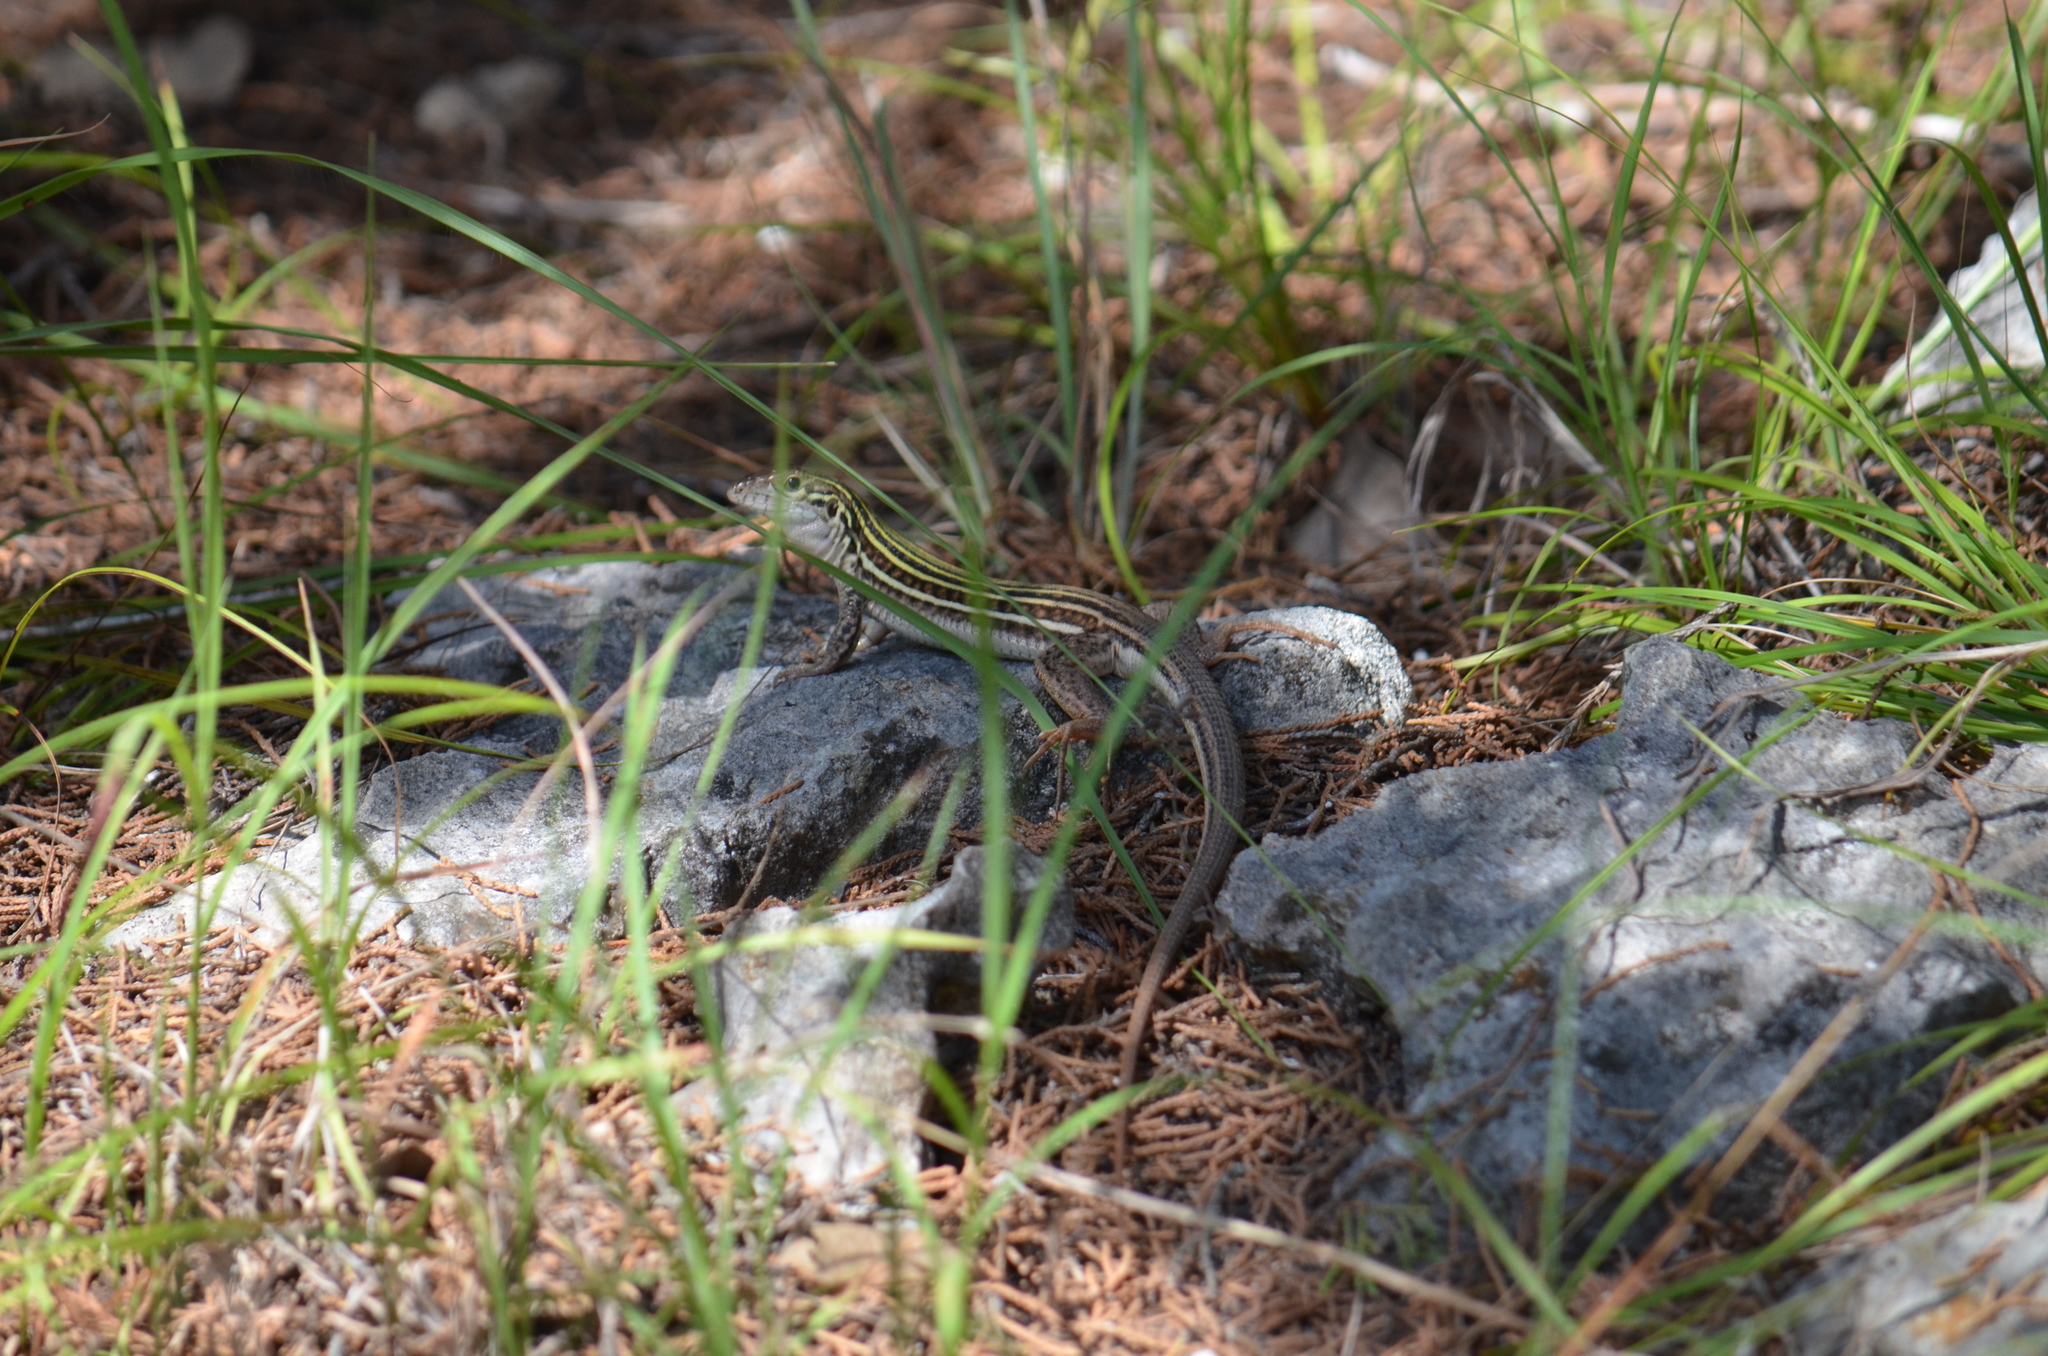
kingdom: Animalia
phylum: Chordata
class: Squamata
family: Teiidae
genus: Aspidoscelis
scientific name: Aspidoscelis gularis
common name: Eastern spotted whiptail
